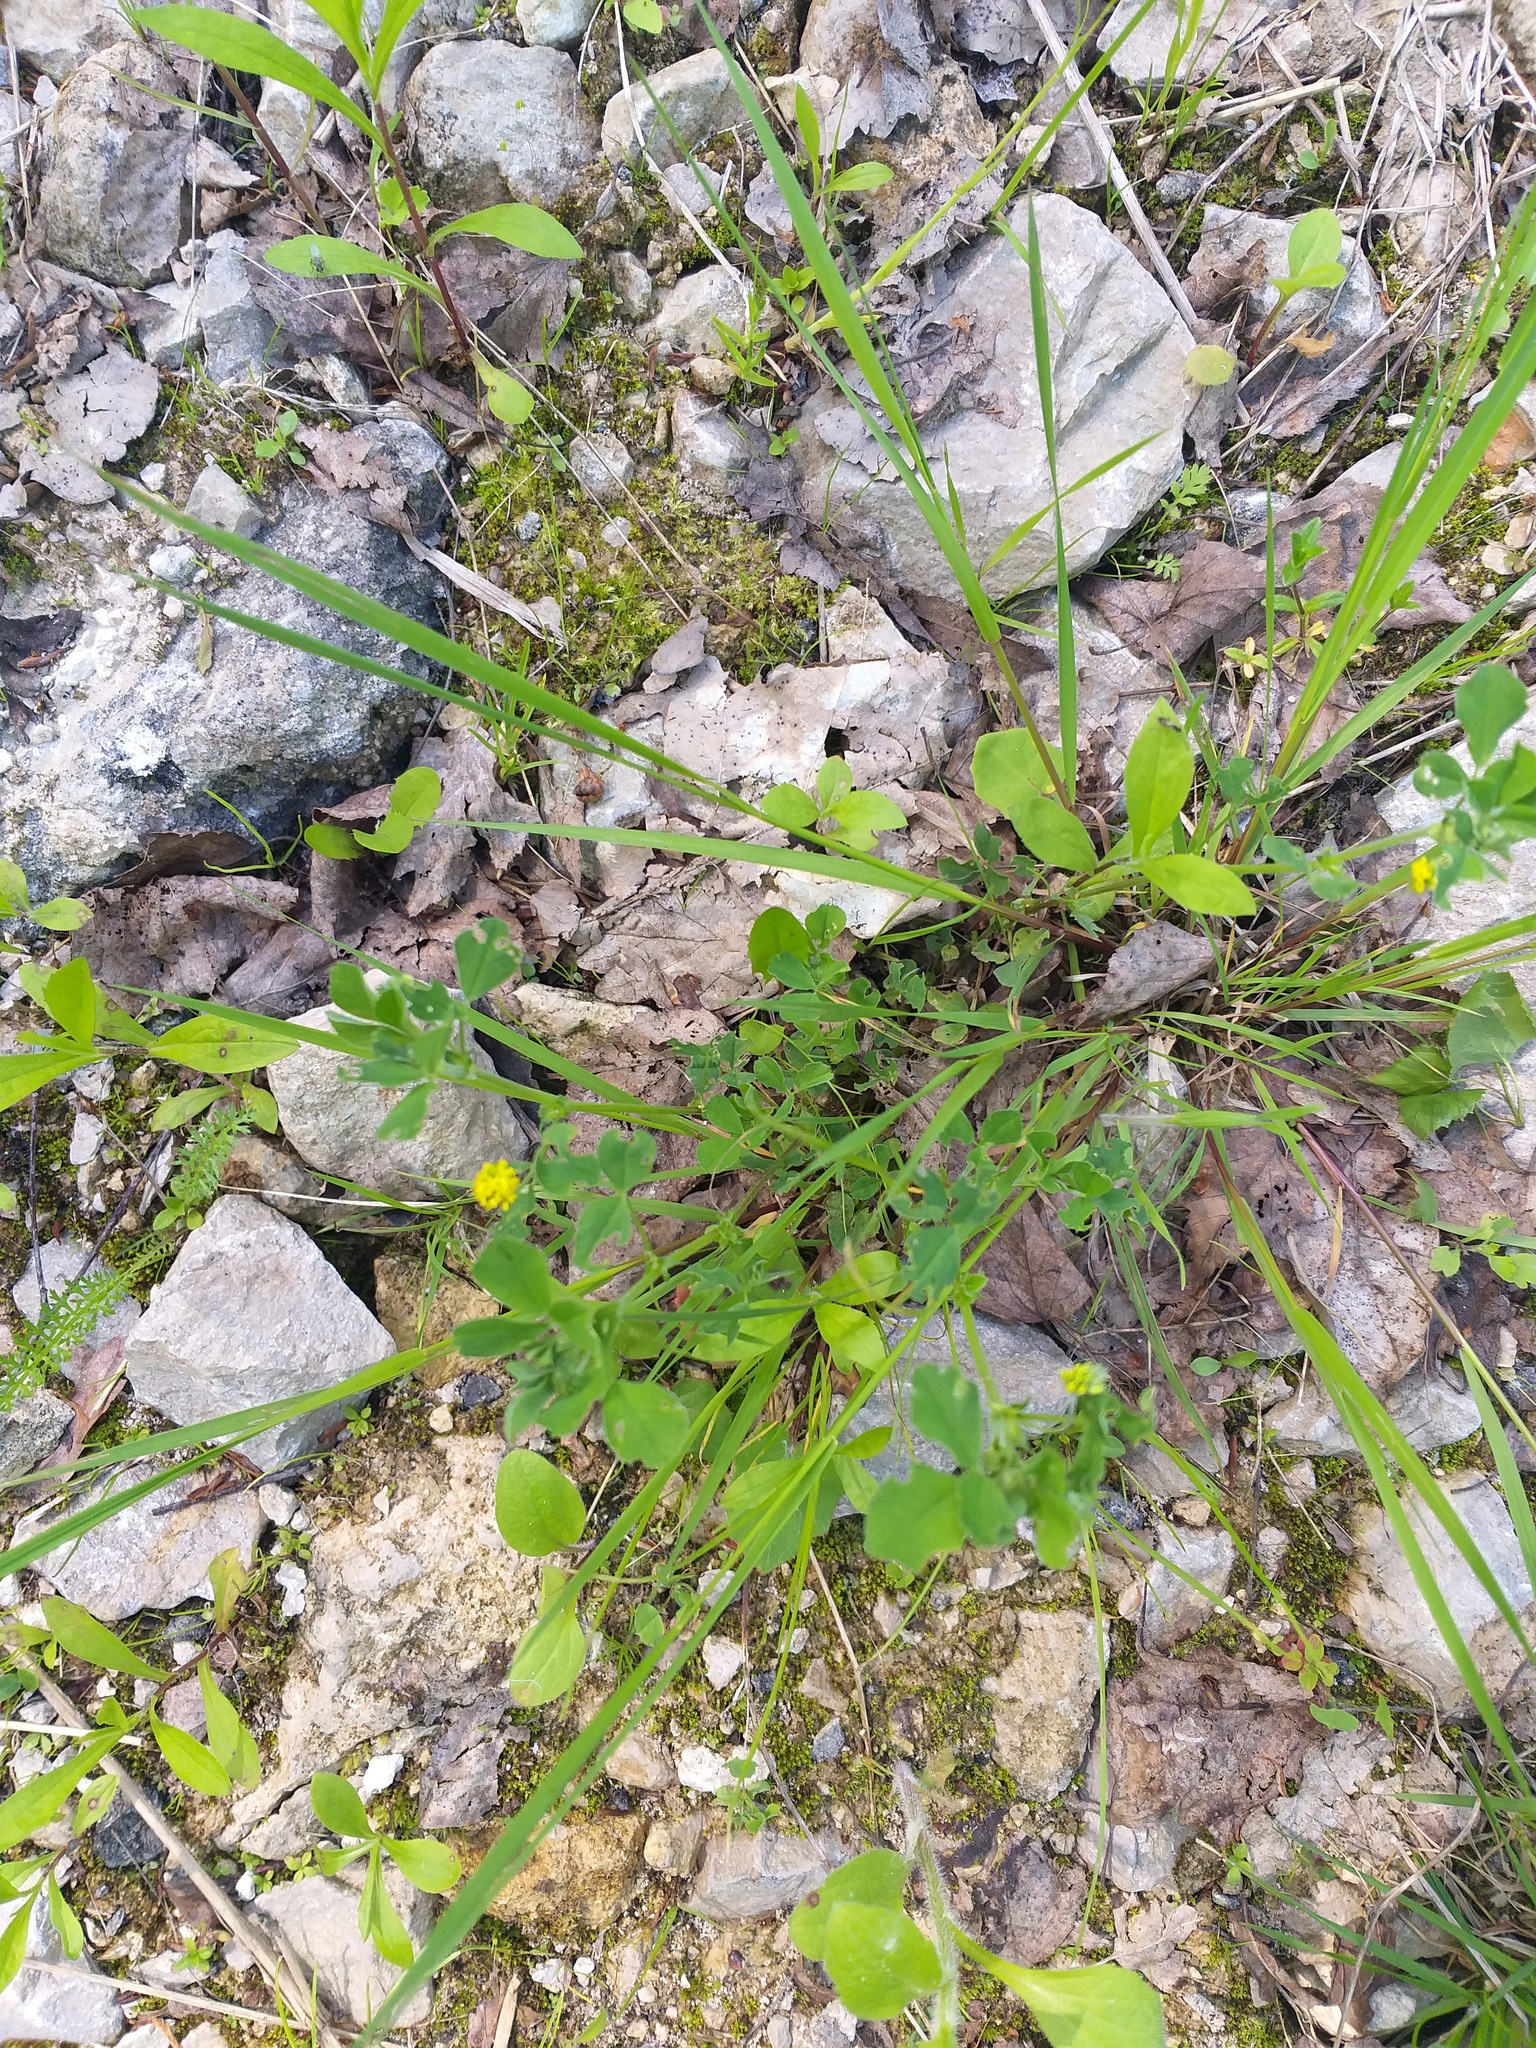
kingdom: Plantae
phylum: Tracheophyta
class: Magnoliopsida
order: Fabales
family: Fabaceae
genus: Medicago
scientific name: Medicago lupulina
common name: Black medick
